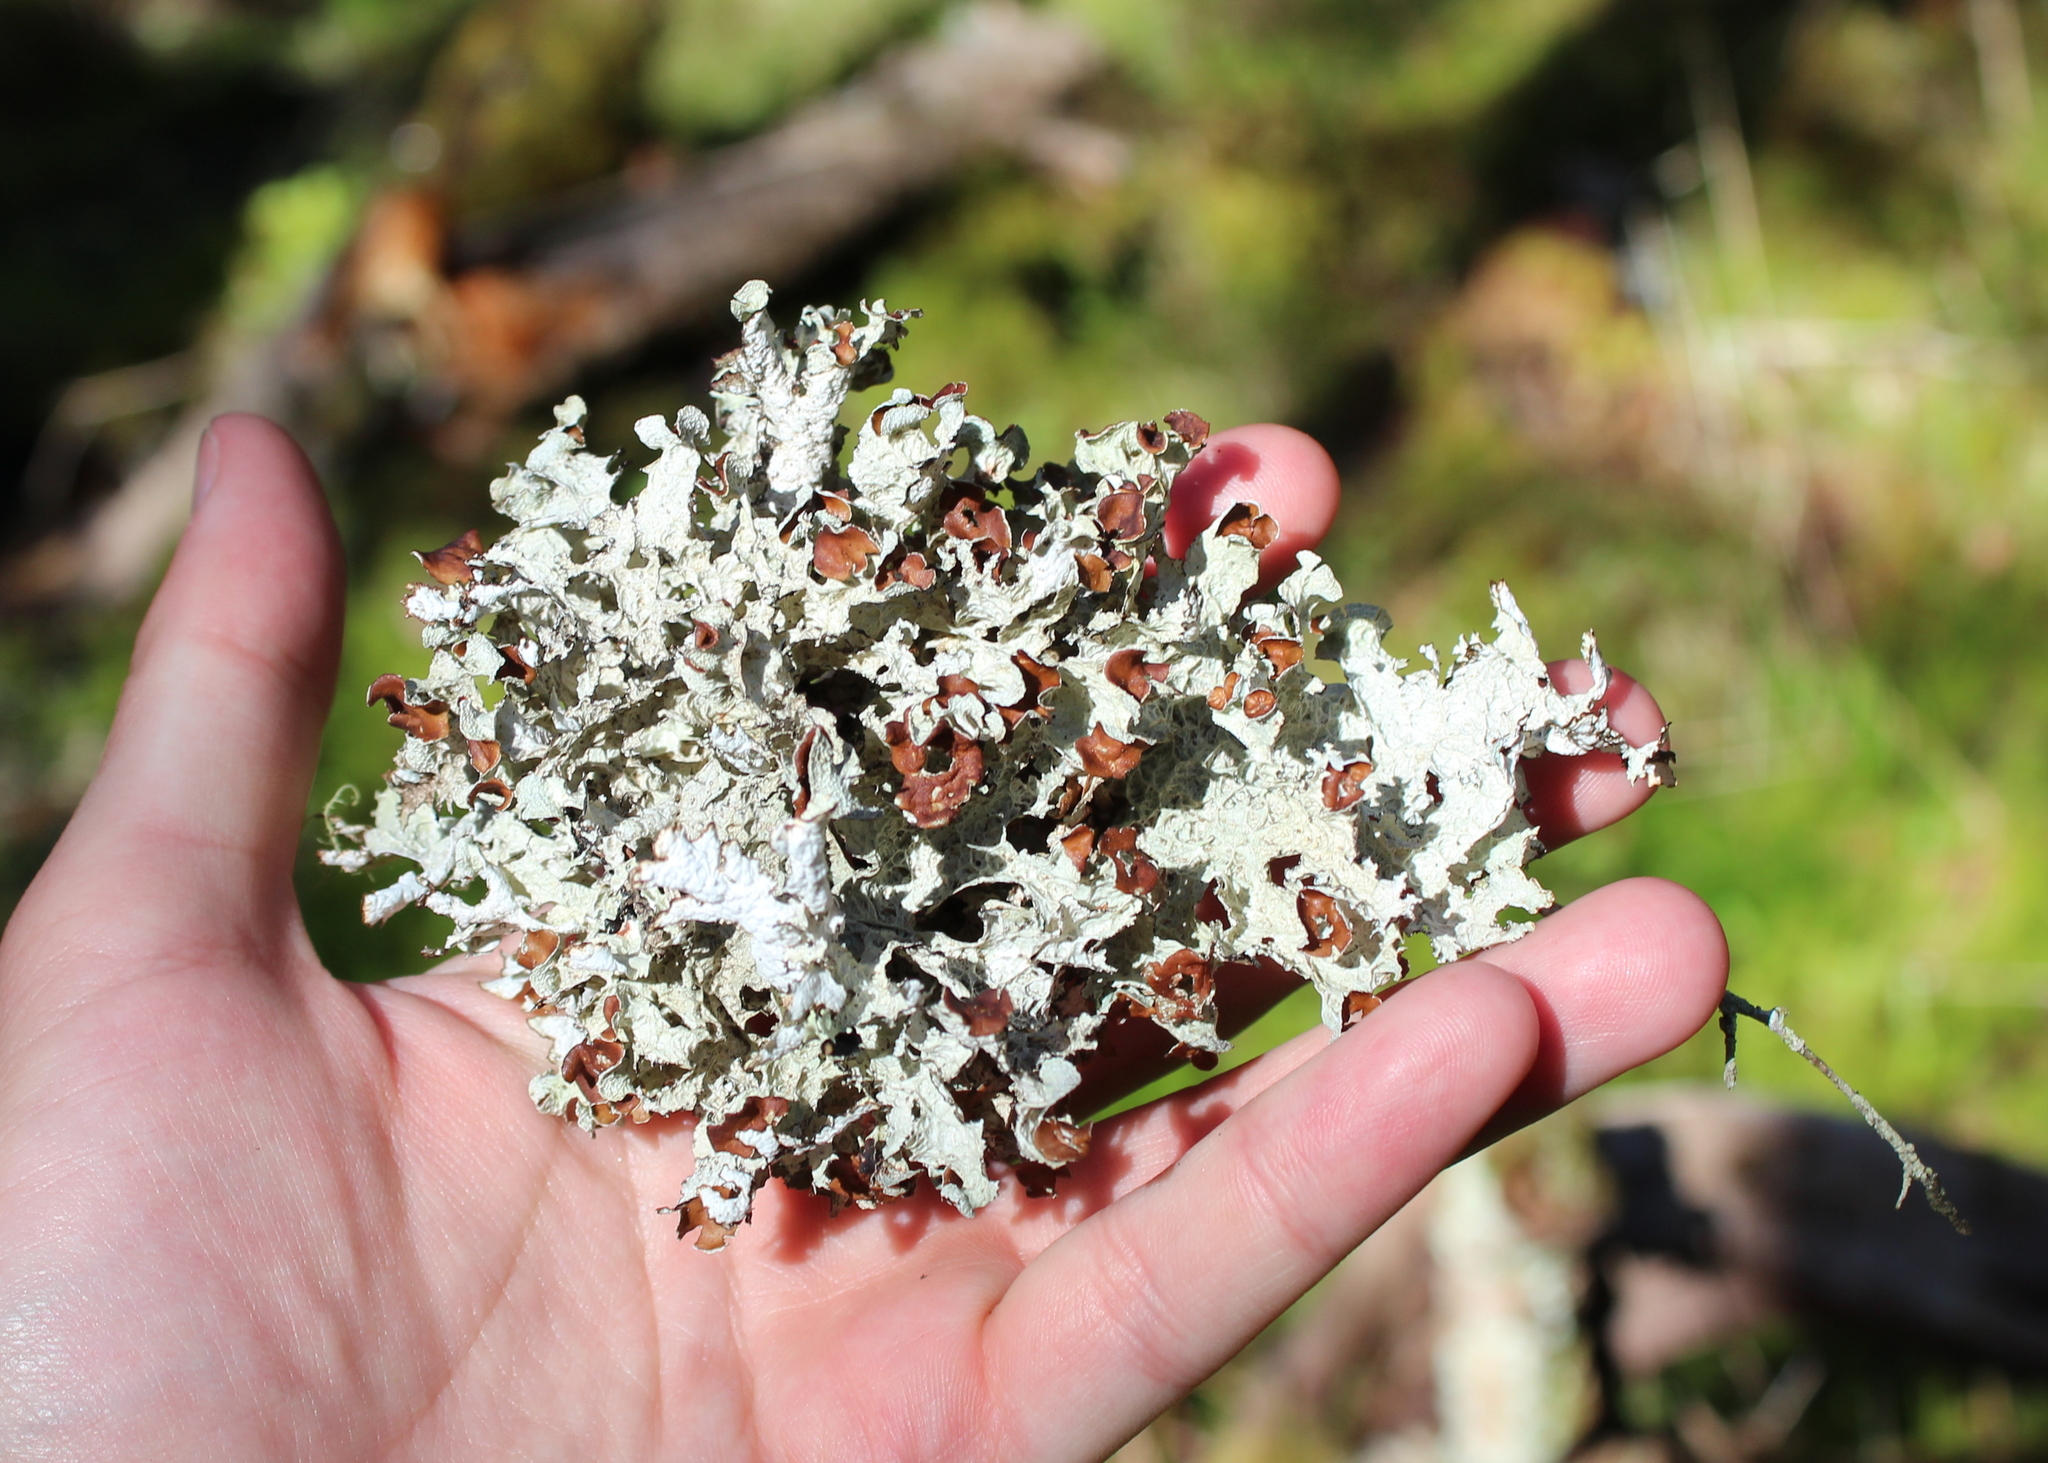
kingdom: Fungi
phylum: Ascomycota
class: Lecanoromycetes
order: Lecanorales
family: Parmeliaceae
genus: Platismatia
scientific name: Platismatia tuckermanii
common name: Crumpled rag lichen
